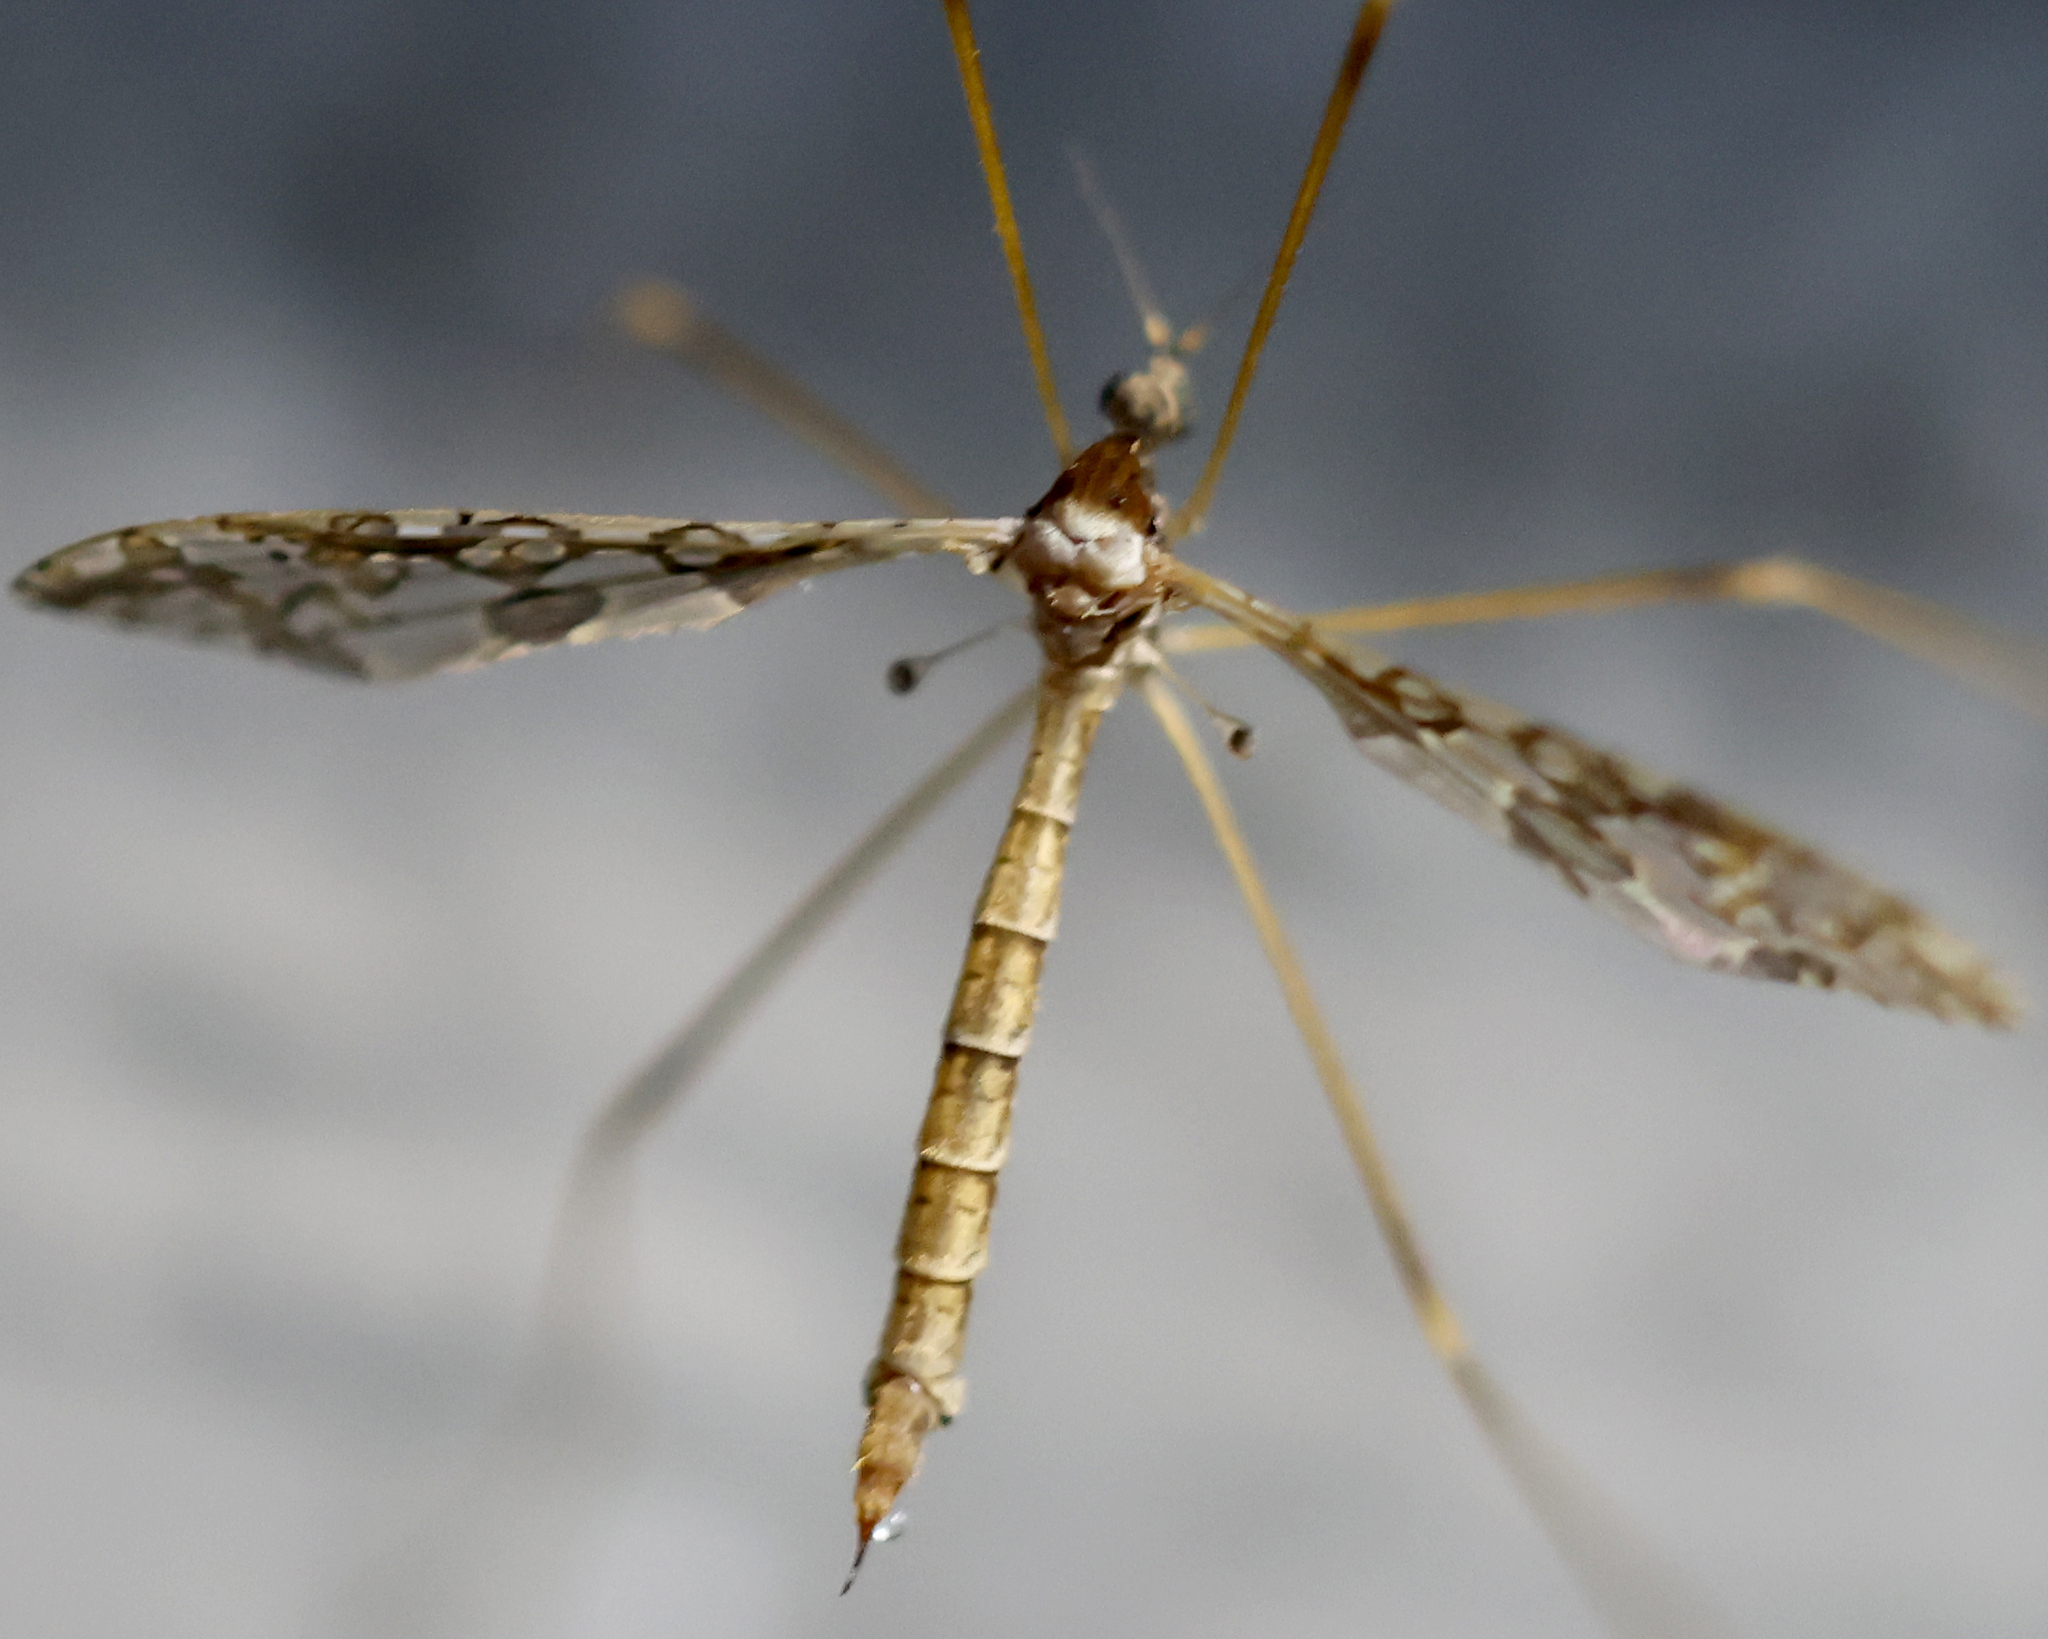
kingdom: Animalia
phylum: Arthropoda
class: Insecta
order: Diptera
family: Limoniidae
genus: Epiphragma
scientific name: Epiphragma solatrix
